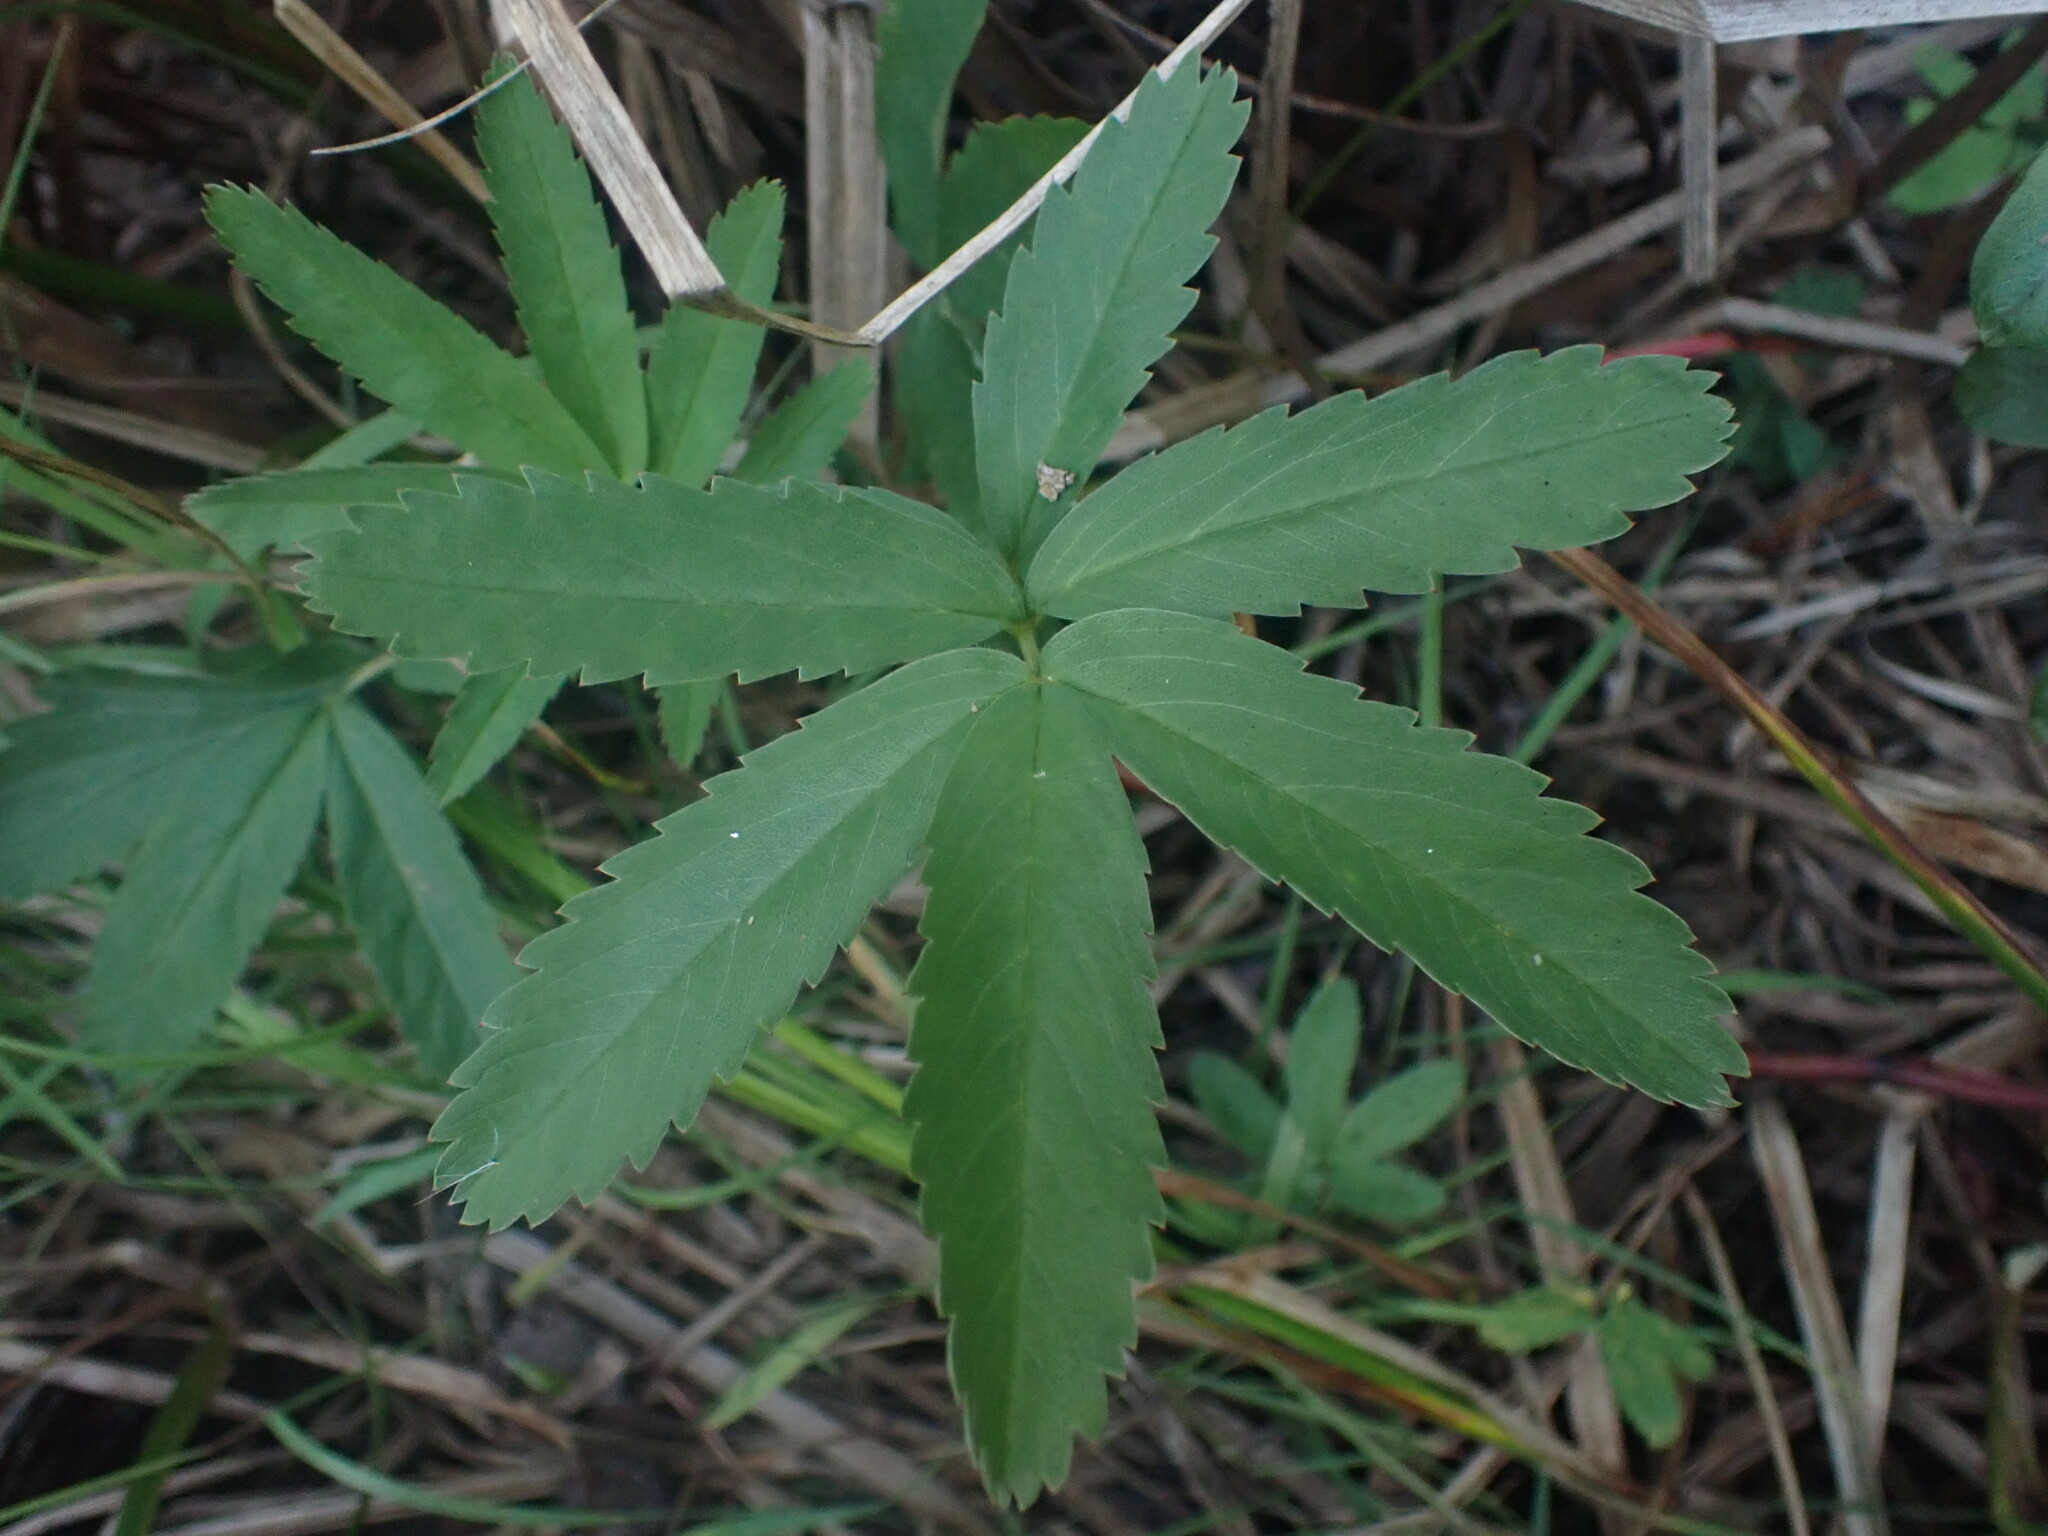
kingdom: Plantae
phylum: Tracheophyta
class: Magnoliopsida
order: Rosales
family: Rosaceae
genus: Comarum
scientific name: Comarum palustre
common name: Marsh cinquefoil
